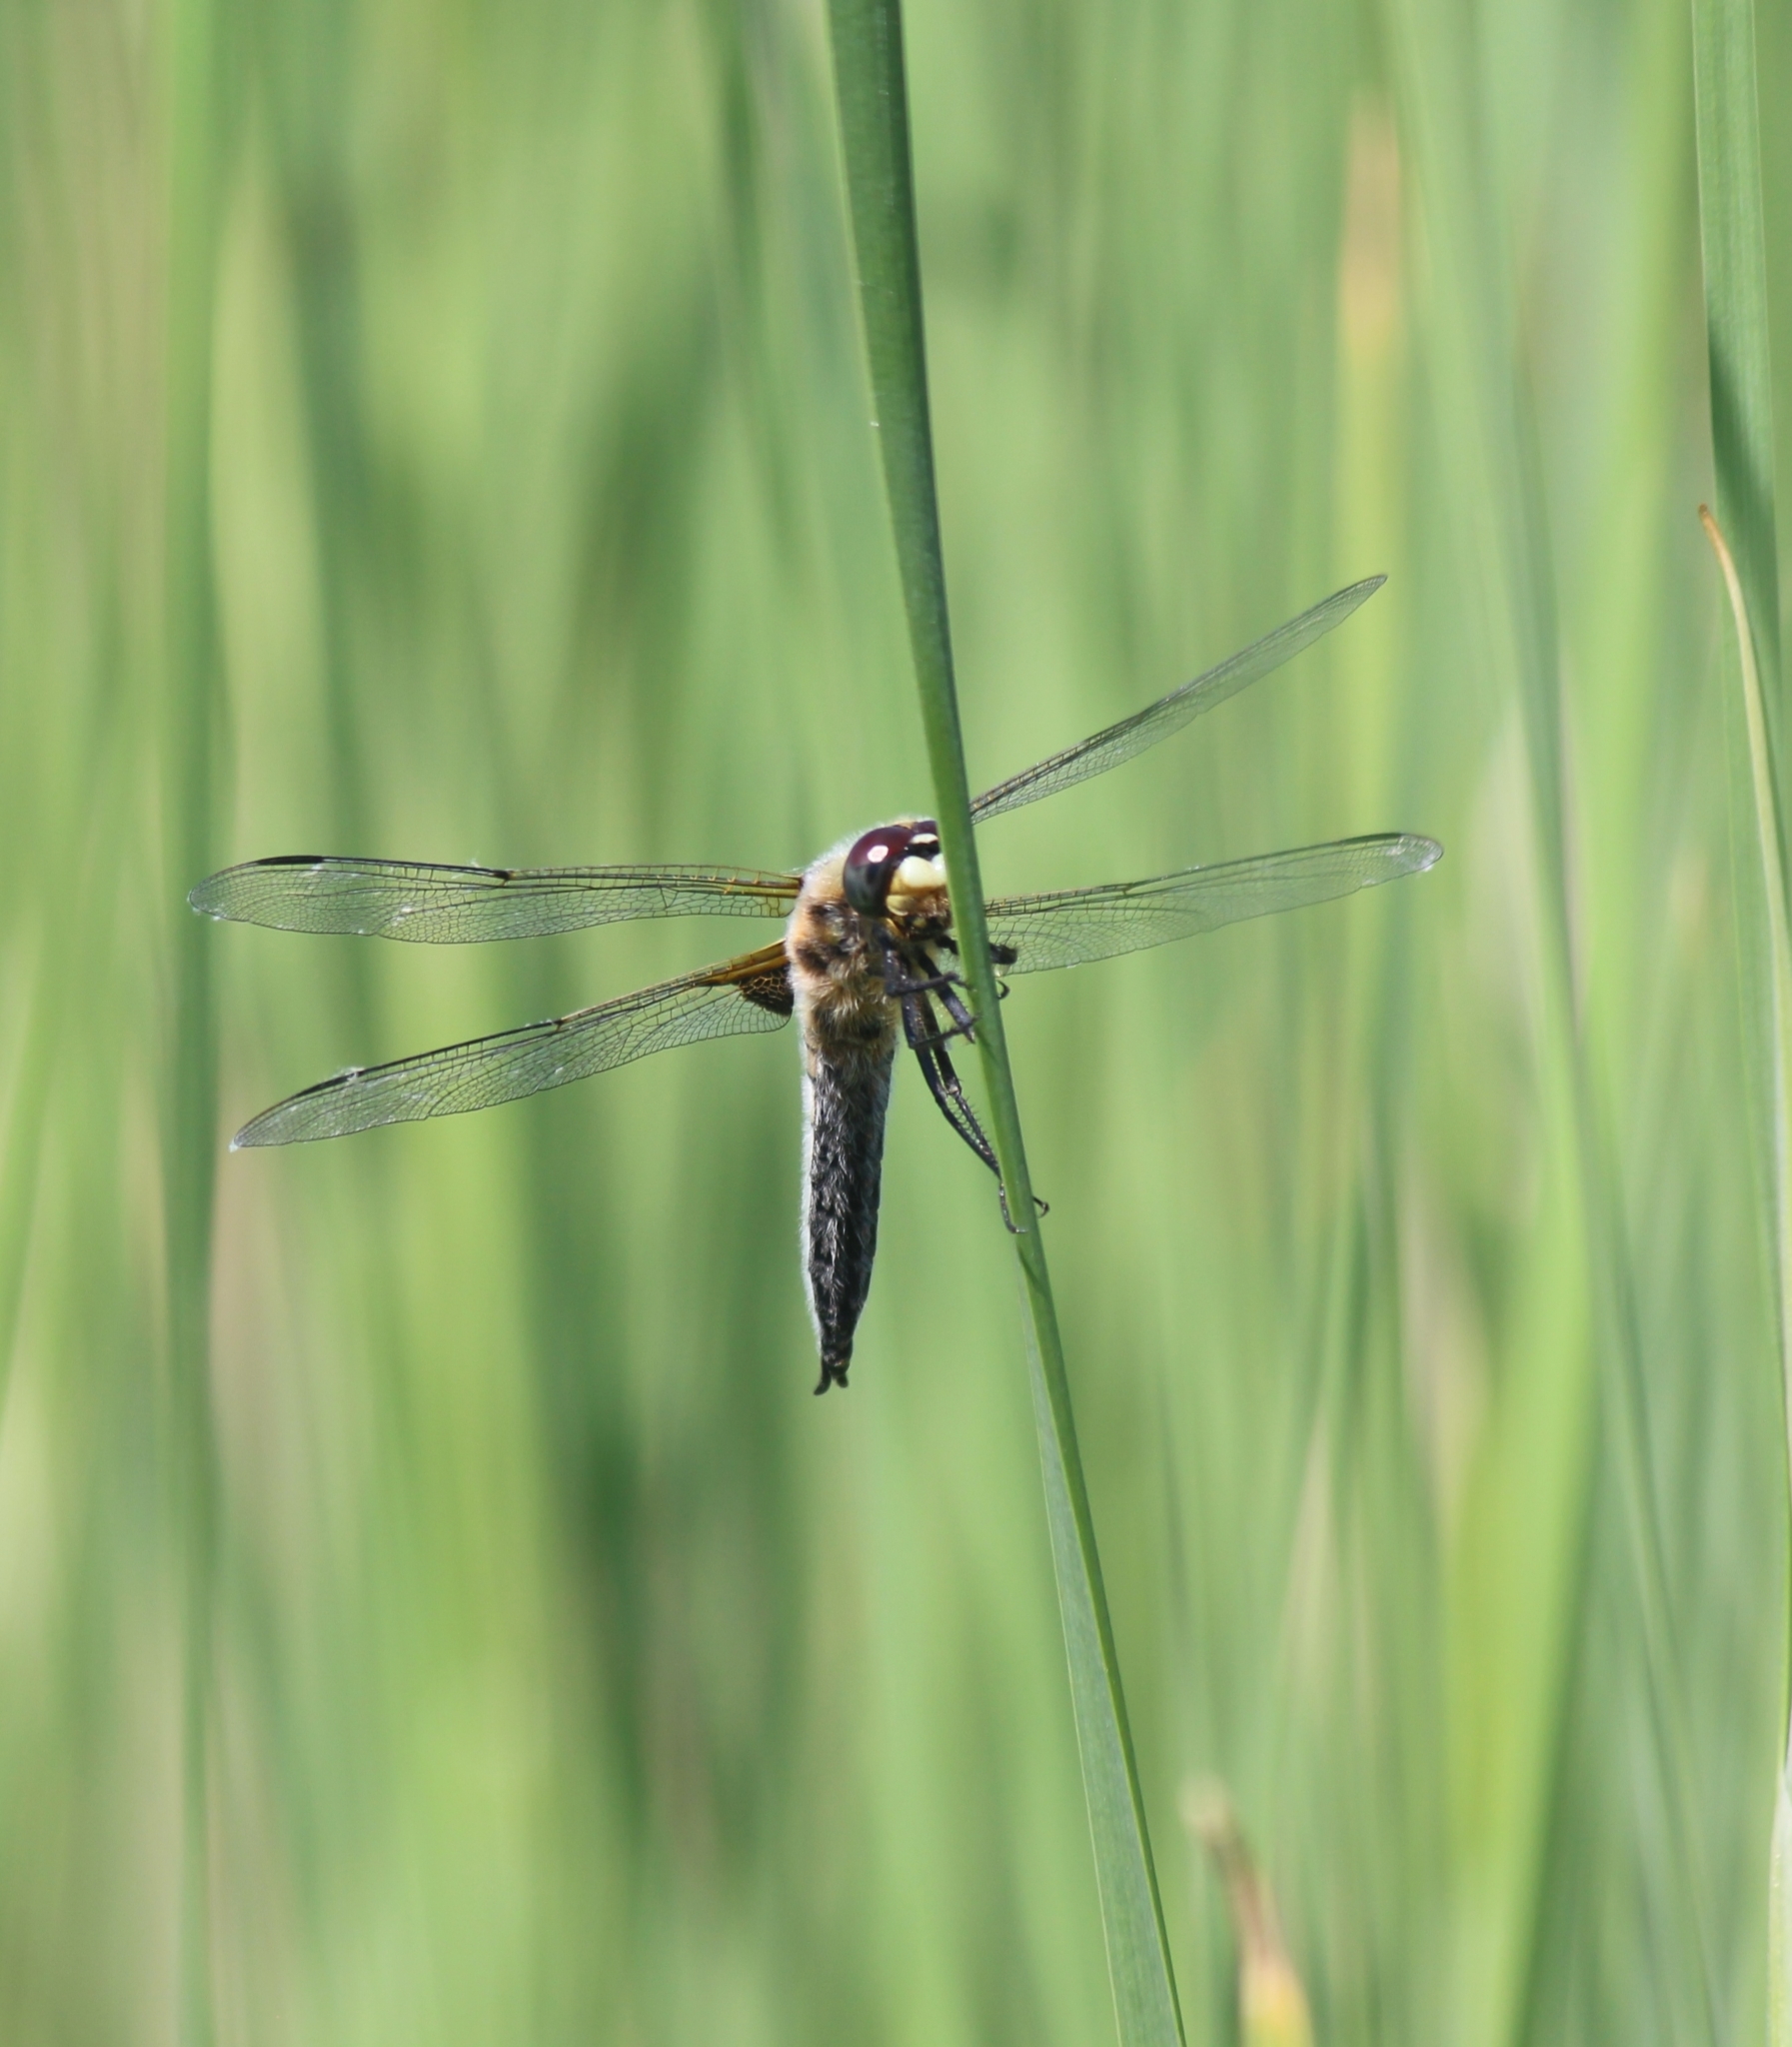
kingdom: Animalia
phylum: Arthropoda
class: Insecta
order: Odonata
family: Libellulidae
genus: Libellula
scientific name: Libellula quadrimaculata
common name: Four-spotted chaser
